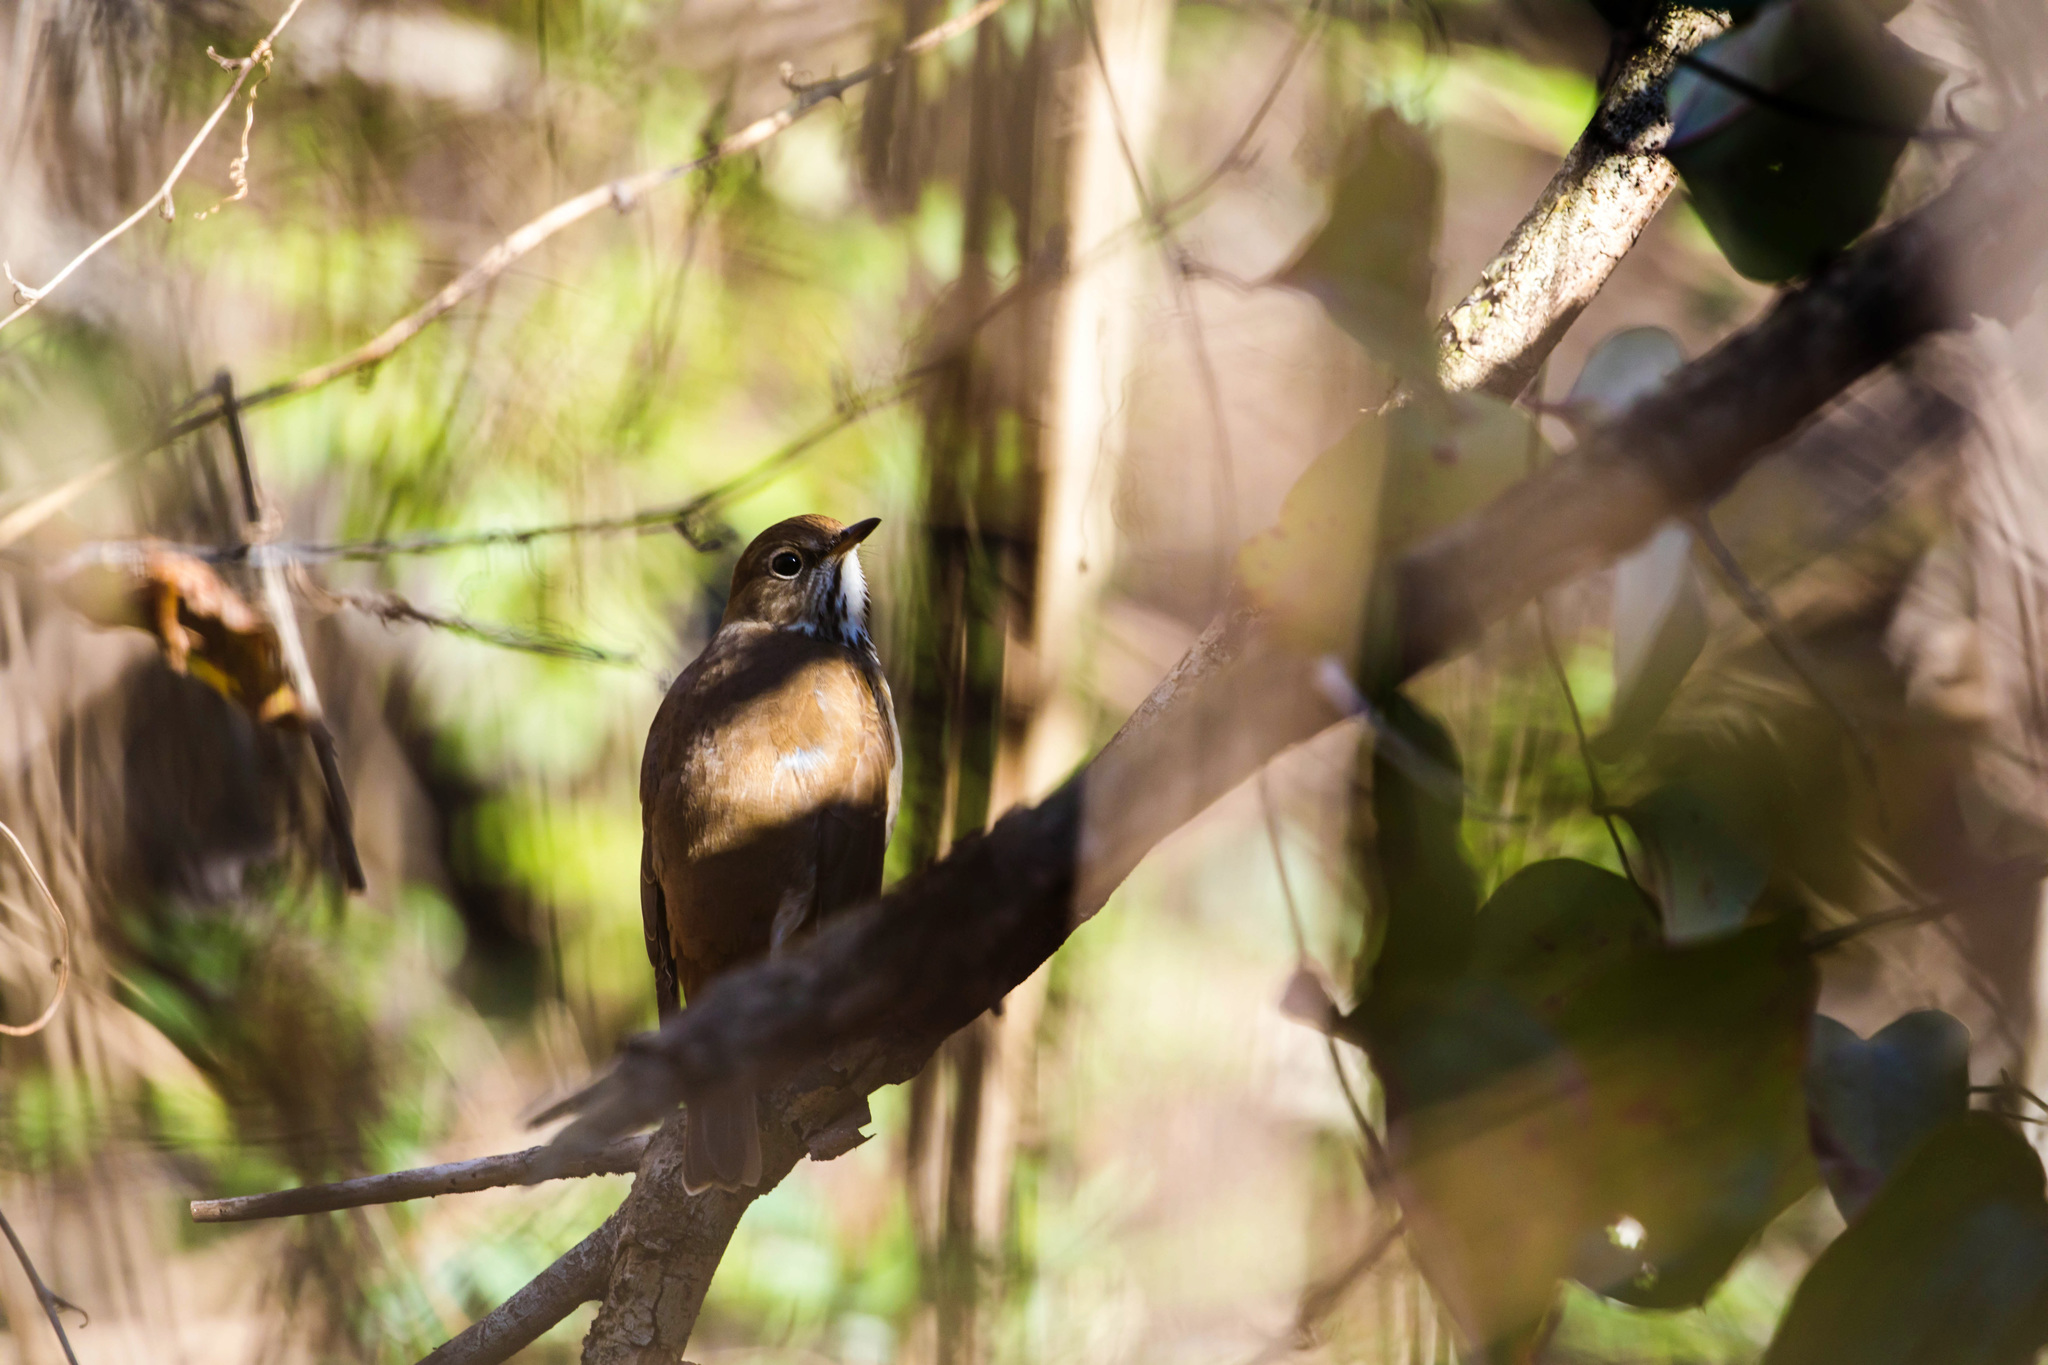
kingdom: Animalia
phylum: Chordata
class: Aves
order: Passeriformes
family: Turdidae
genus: Catharus
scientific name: Catharus guttatus
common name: Hermit thrush
